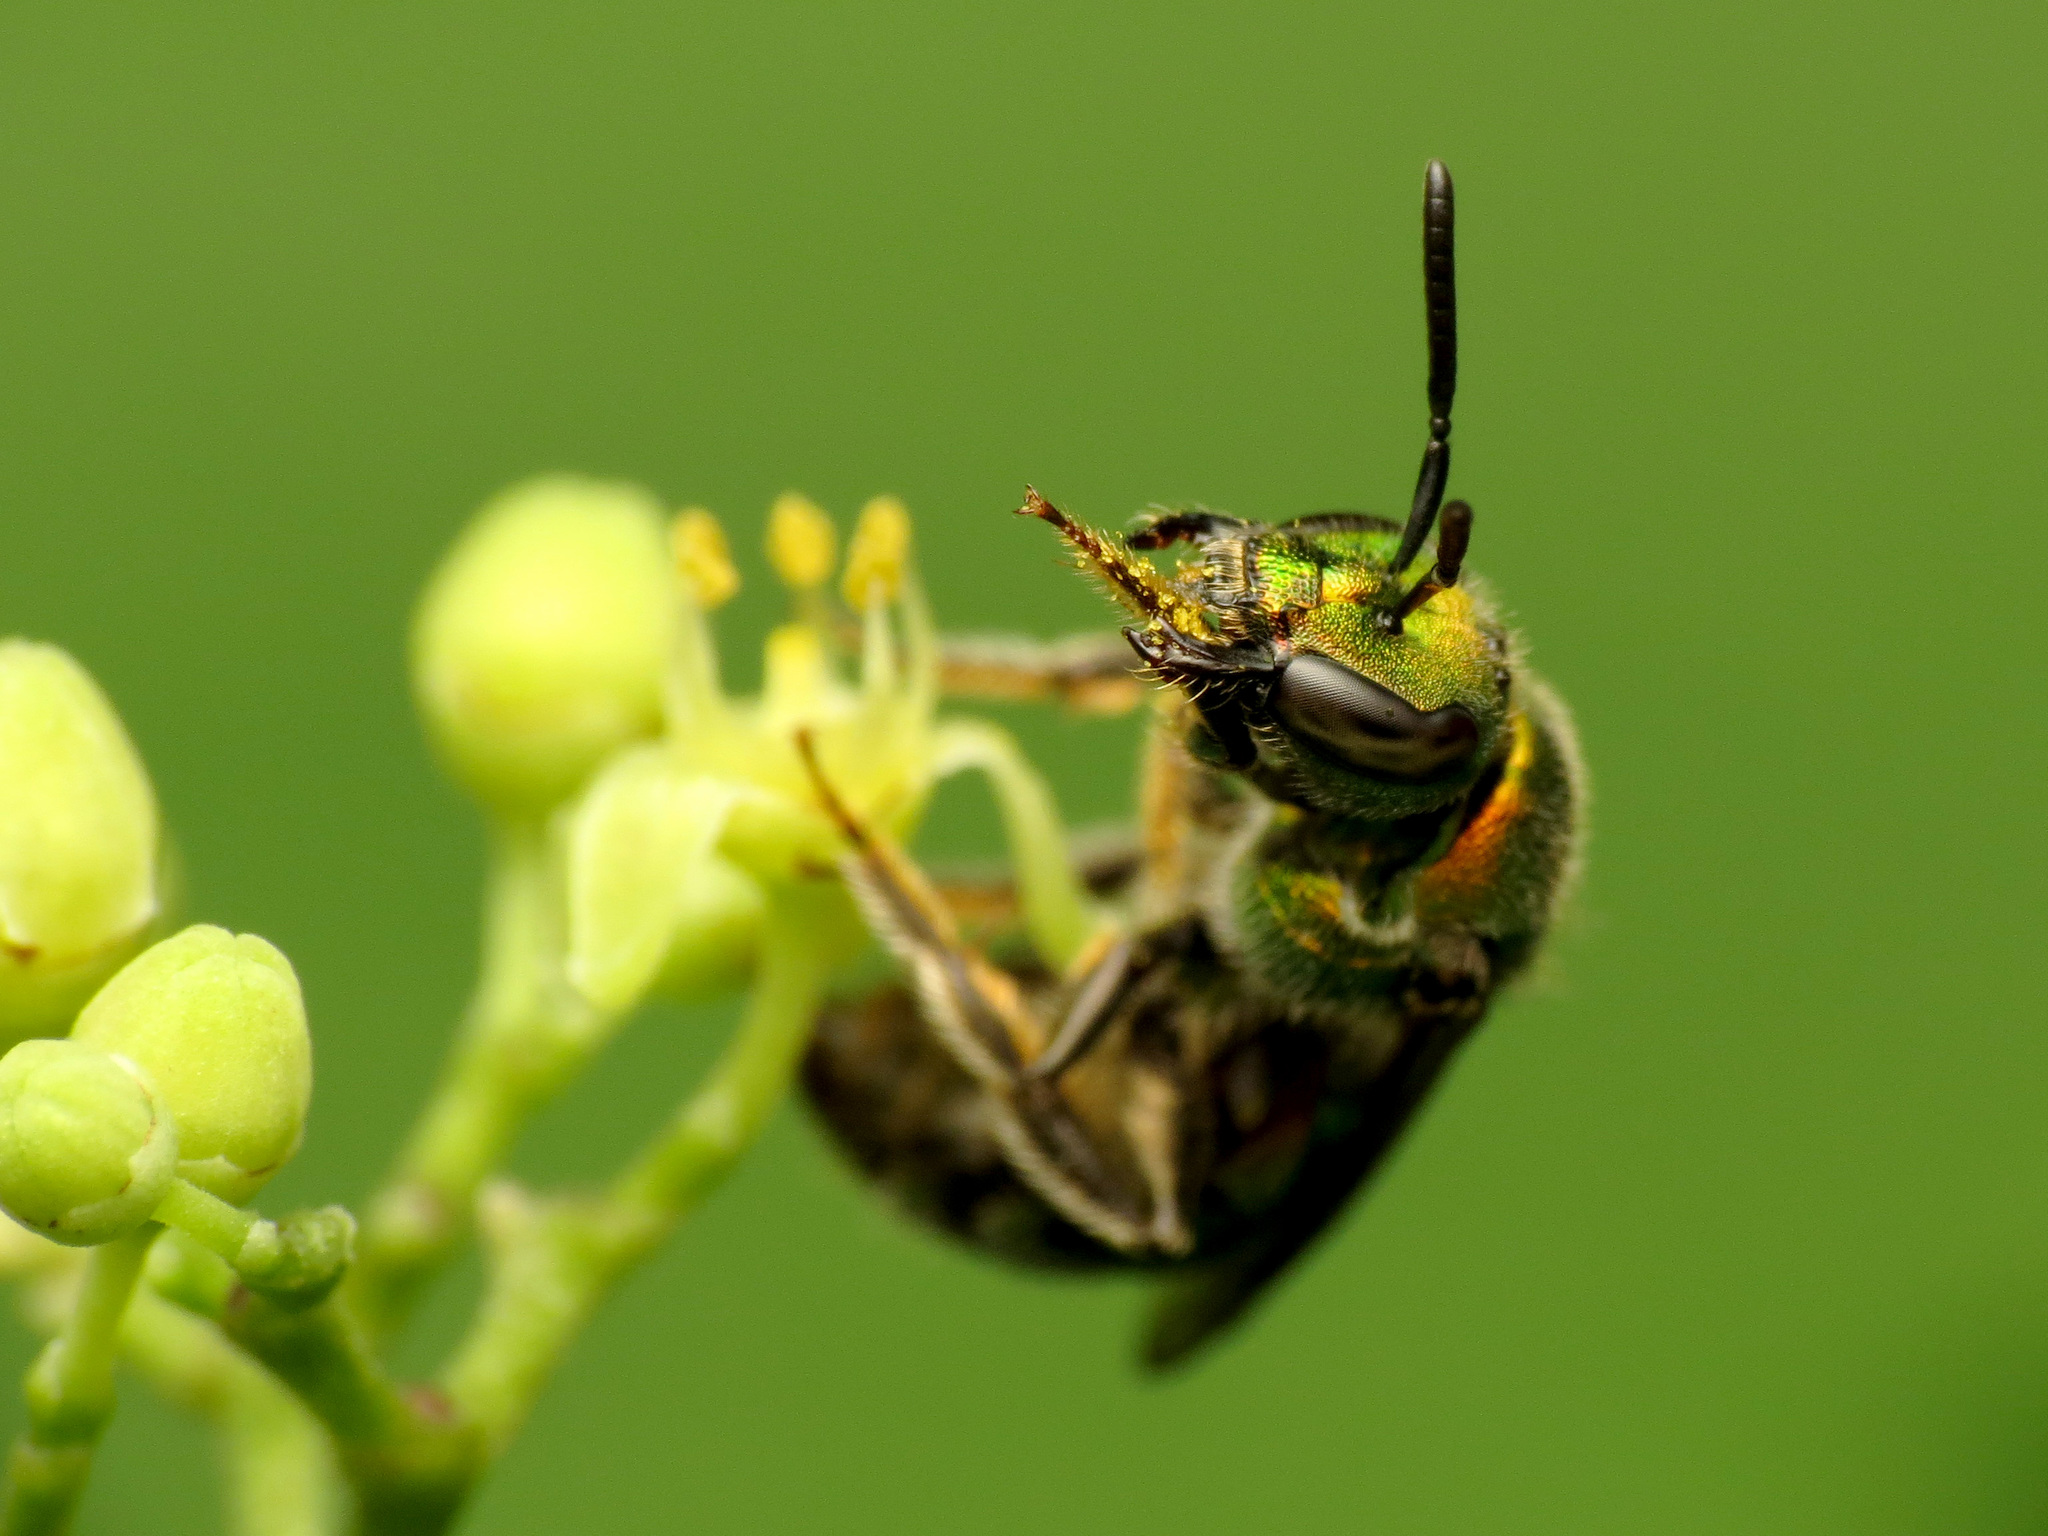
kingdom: Animalia
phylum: Arthropoda
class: Insecta
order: Hymenoptera
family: Halictidae
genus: Augochlora
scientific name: Augochlora pura
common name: Pure green sweat bee
